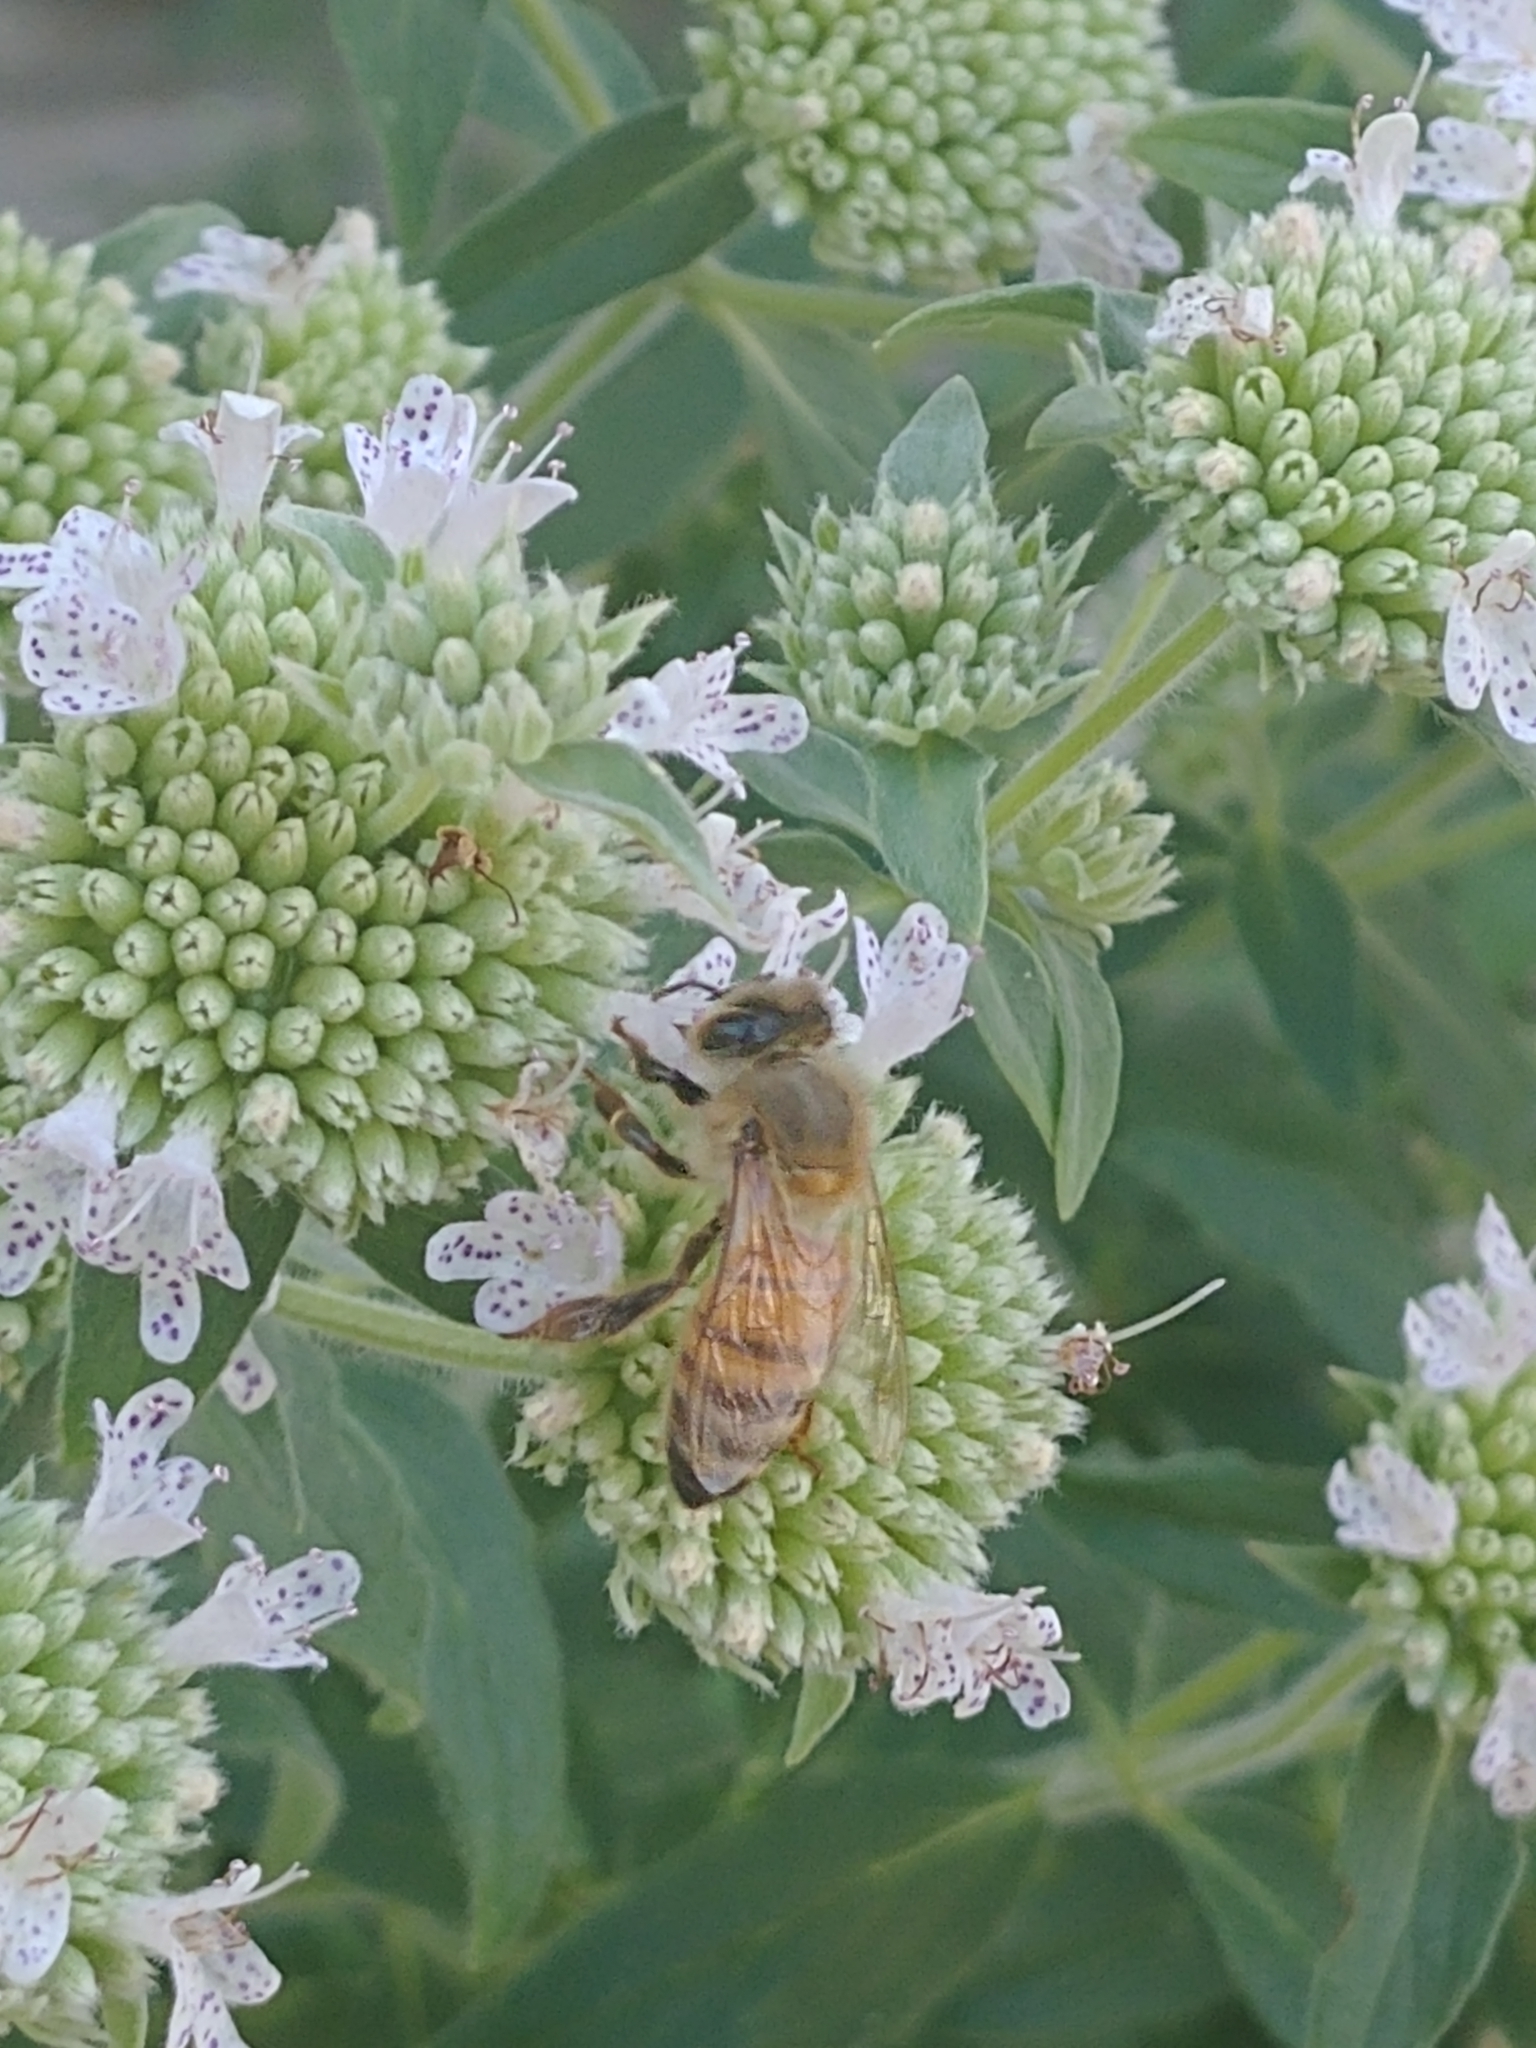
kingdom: Animalia
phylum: Arthropoda
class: Insecta
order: Hymenoptera
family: Apidae
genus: Apis
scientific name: Apis mellifera
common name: Honey bee
